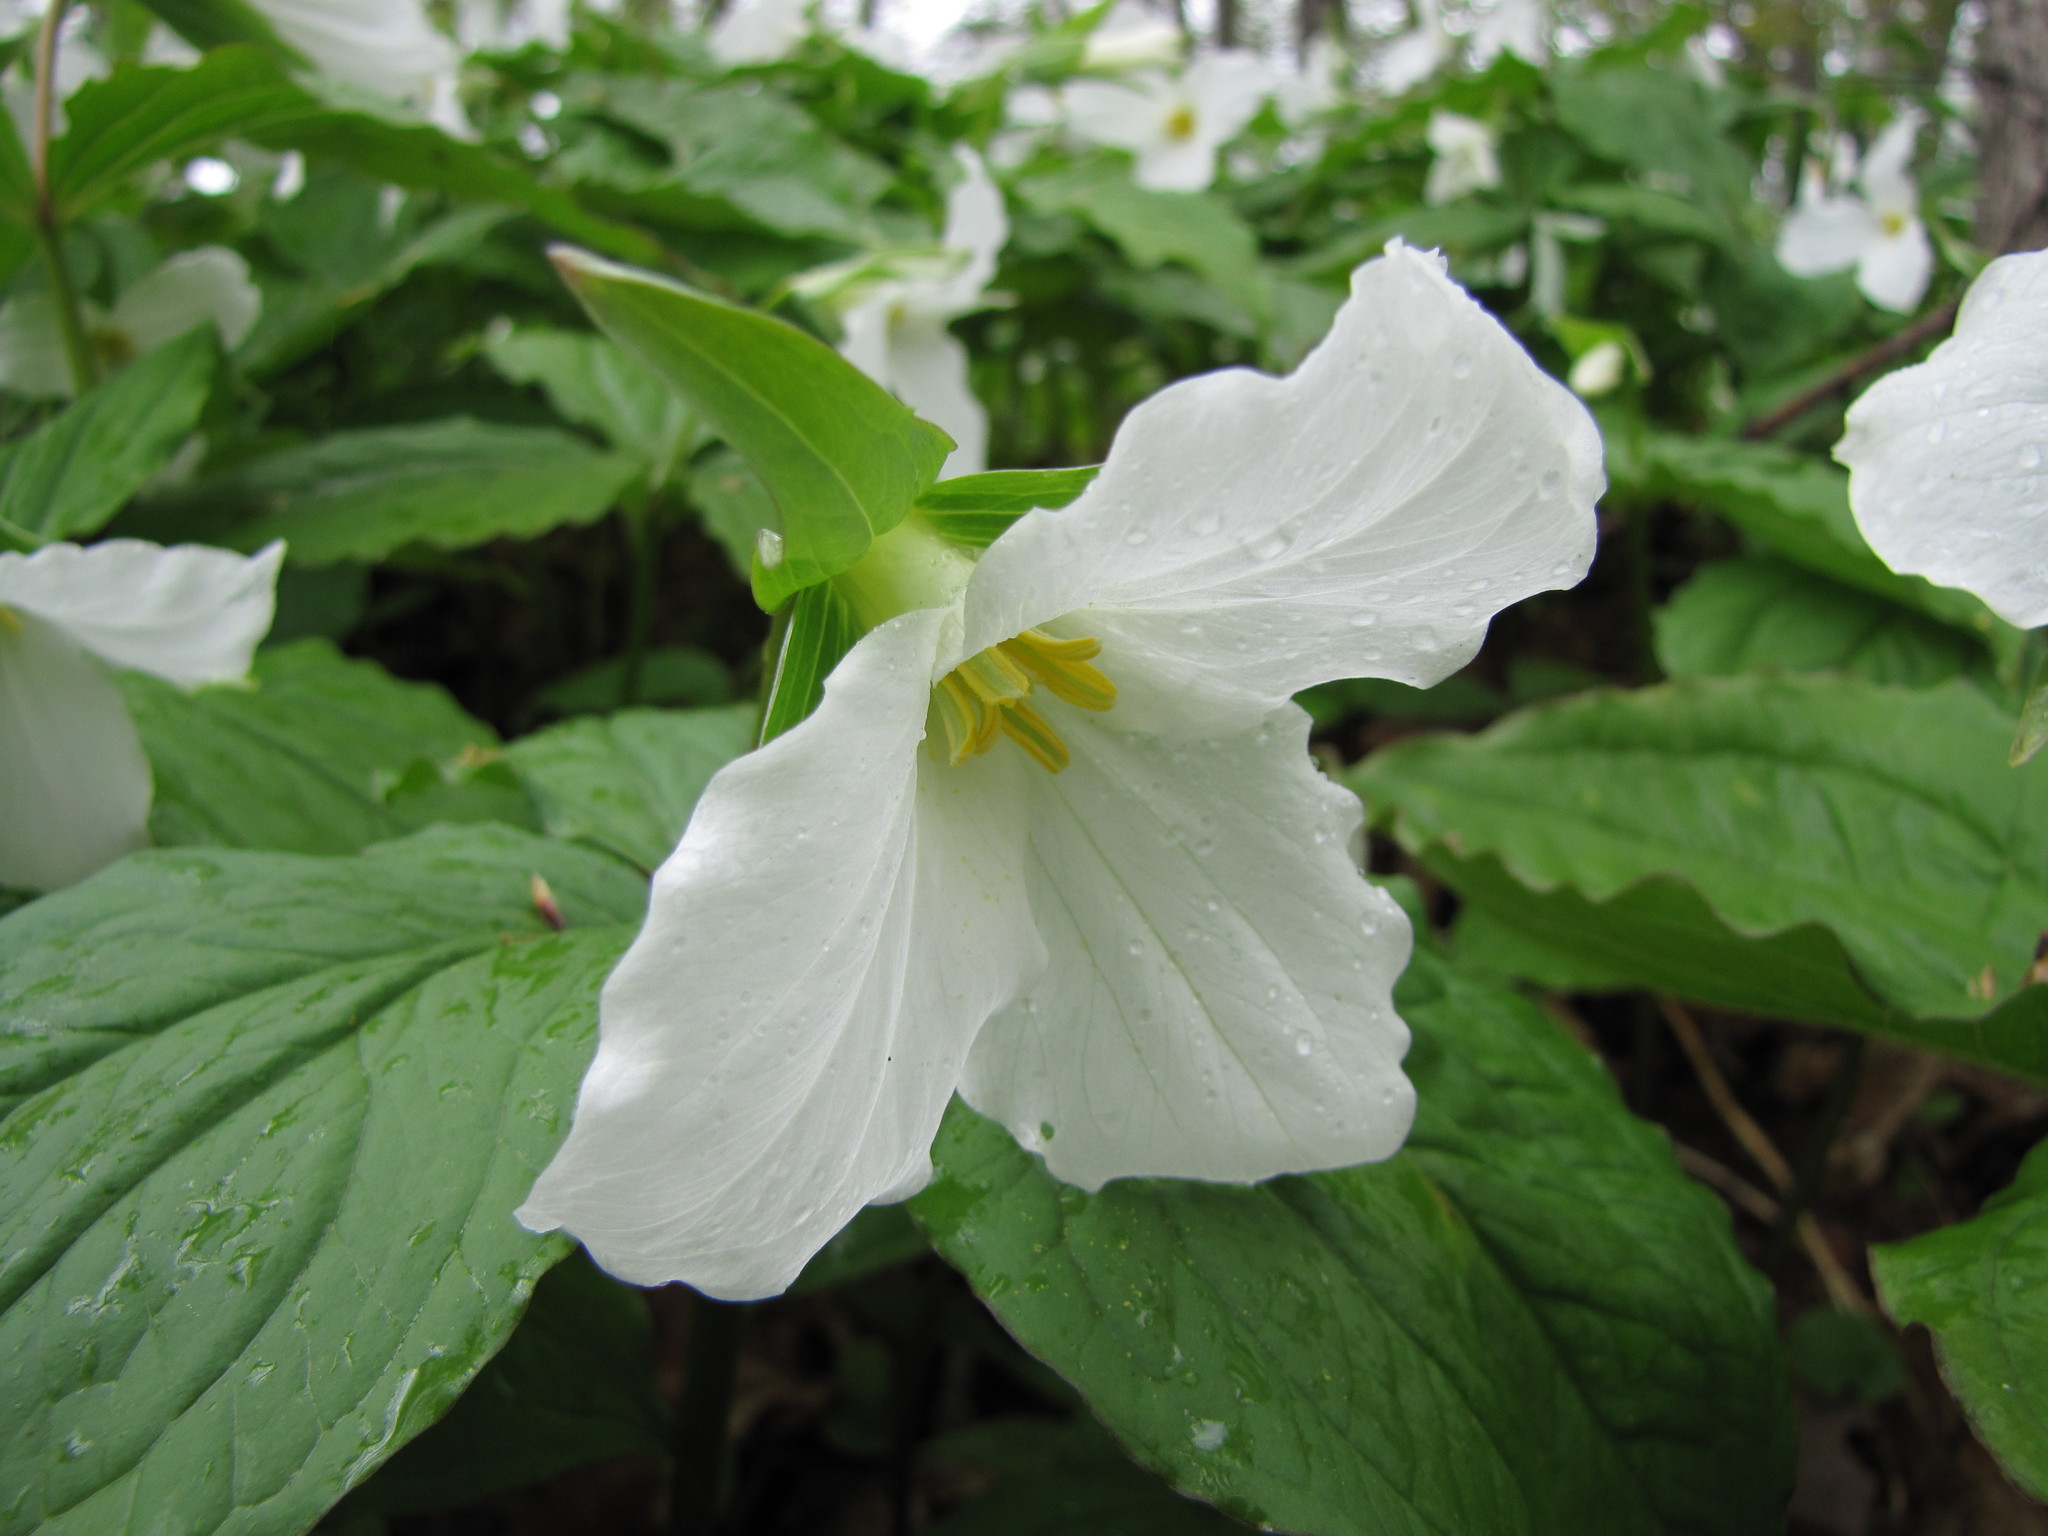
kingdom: Plantae
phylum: Tracheophyta
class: Liliopsida
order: Liliales
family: Melanthiaceae
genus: Trillium
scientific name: Trillium grandiflorum
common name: Great white trillium
